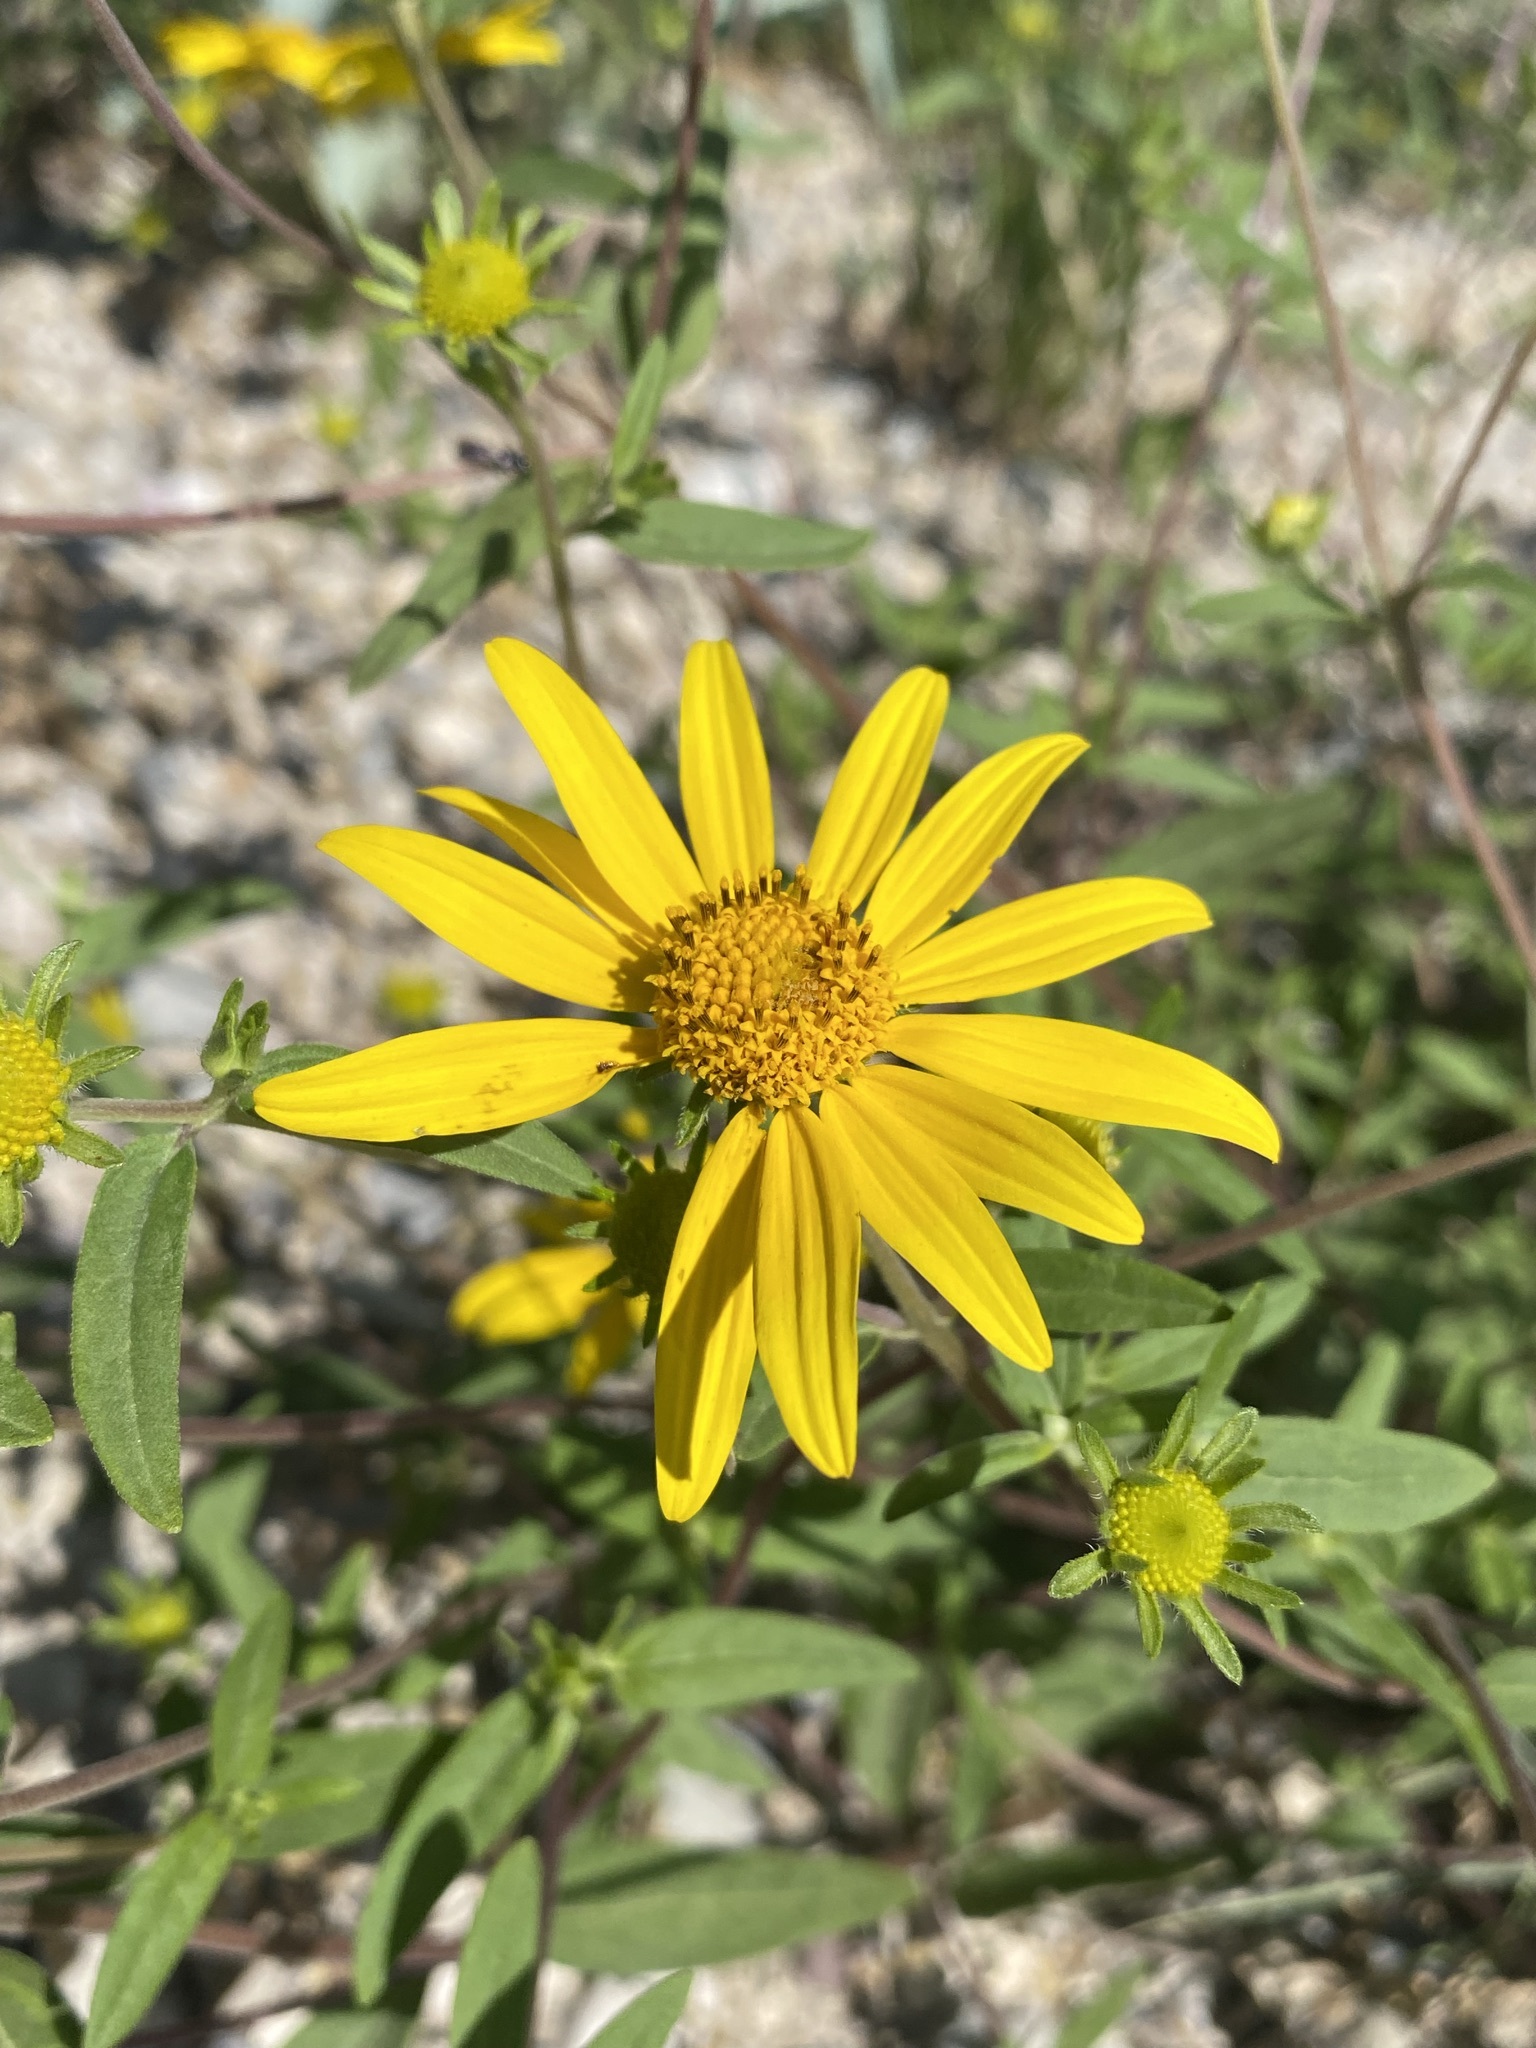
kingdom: Plantae
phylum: Tracheophyta
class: Magnoliopsida
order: Asterales
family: Asteraceae
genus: Heliomeris
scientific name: Heliomeris multiflora
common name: Showy goldeneye
